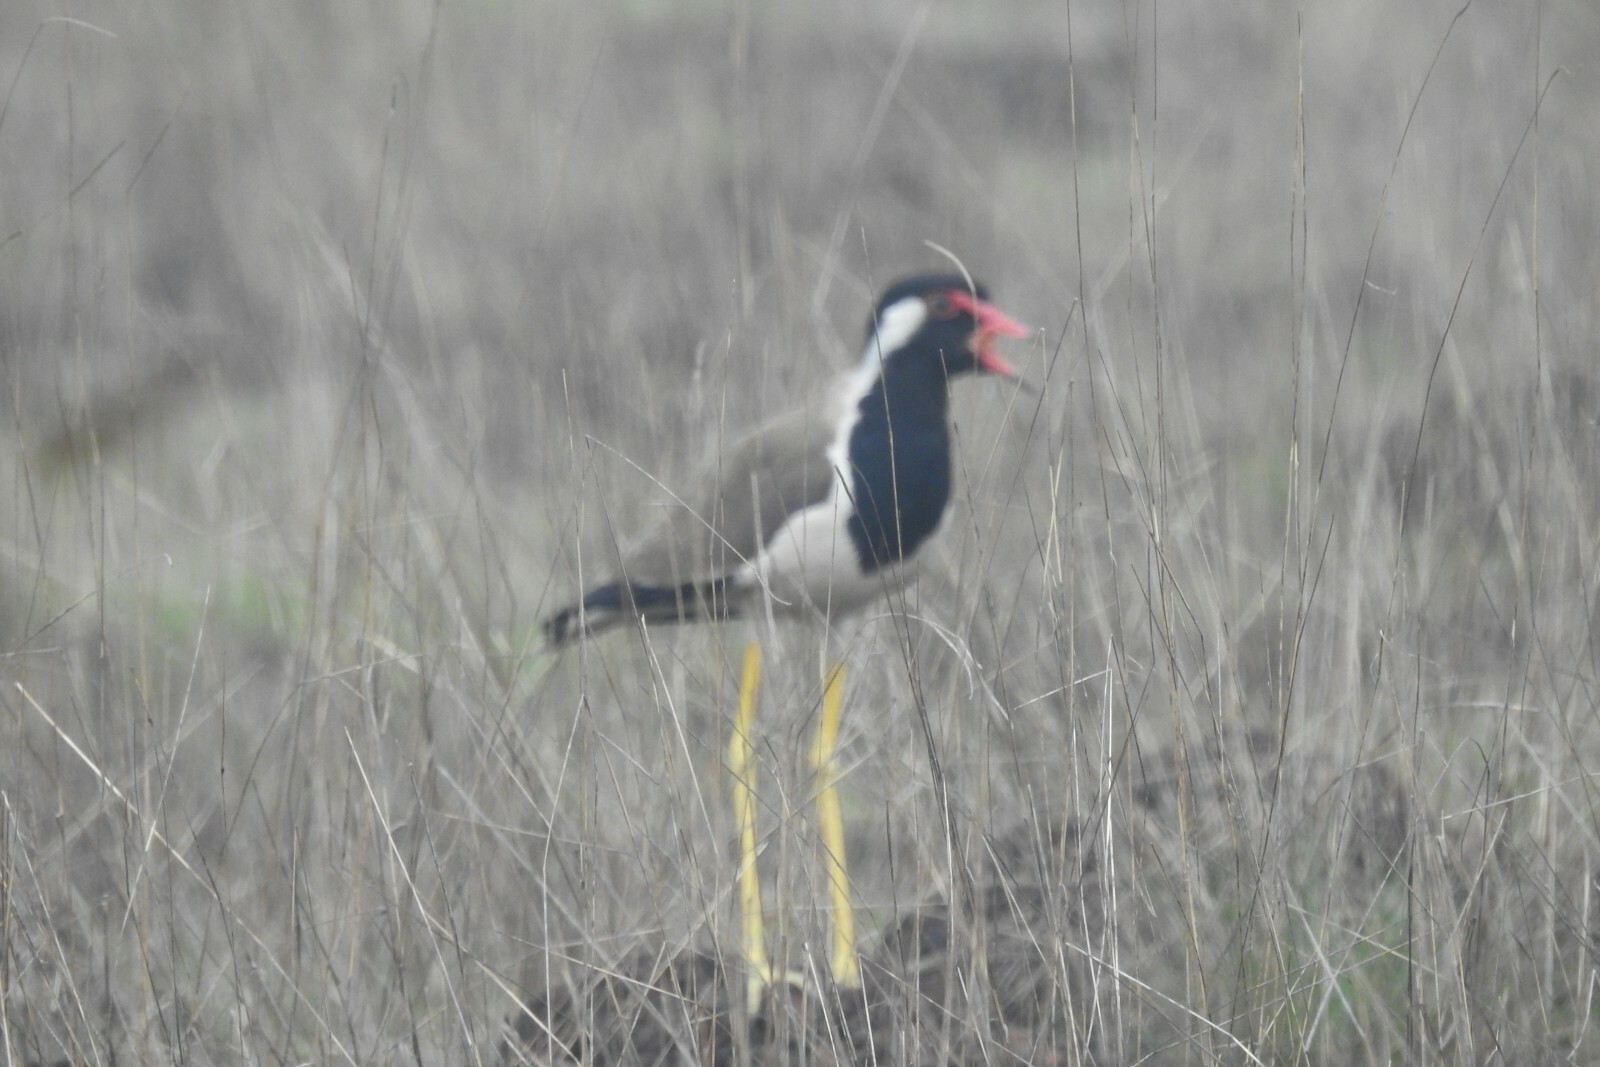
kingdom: Animalia
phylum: Chordata
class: Aves
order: Charadriiformes
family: Charadriidae
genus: Vanellus
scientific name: Vanellus indicus
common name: Red-wattled lapwing
